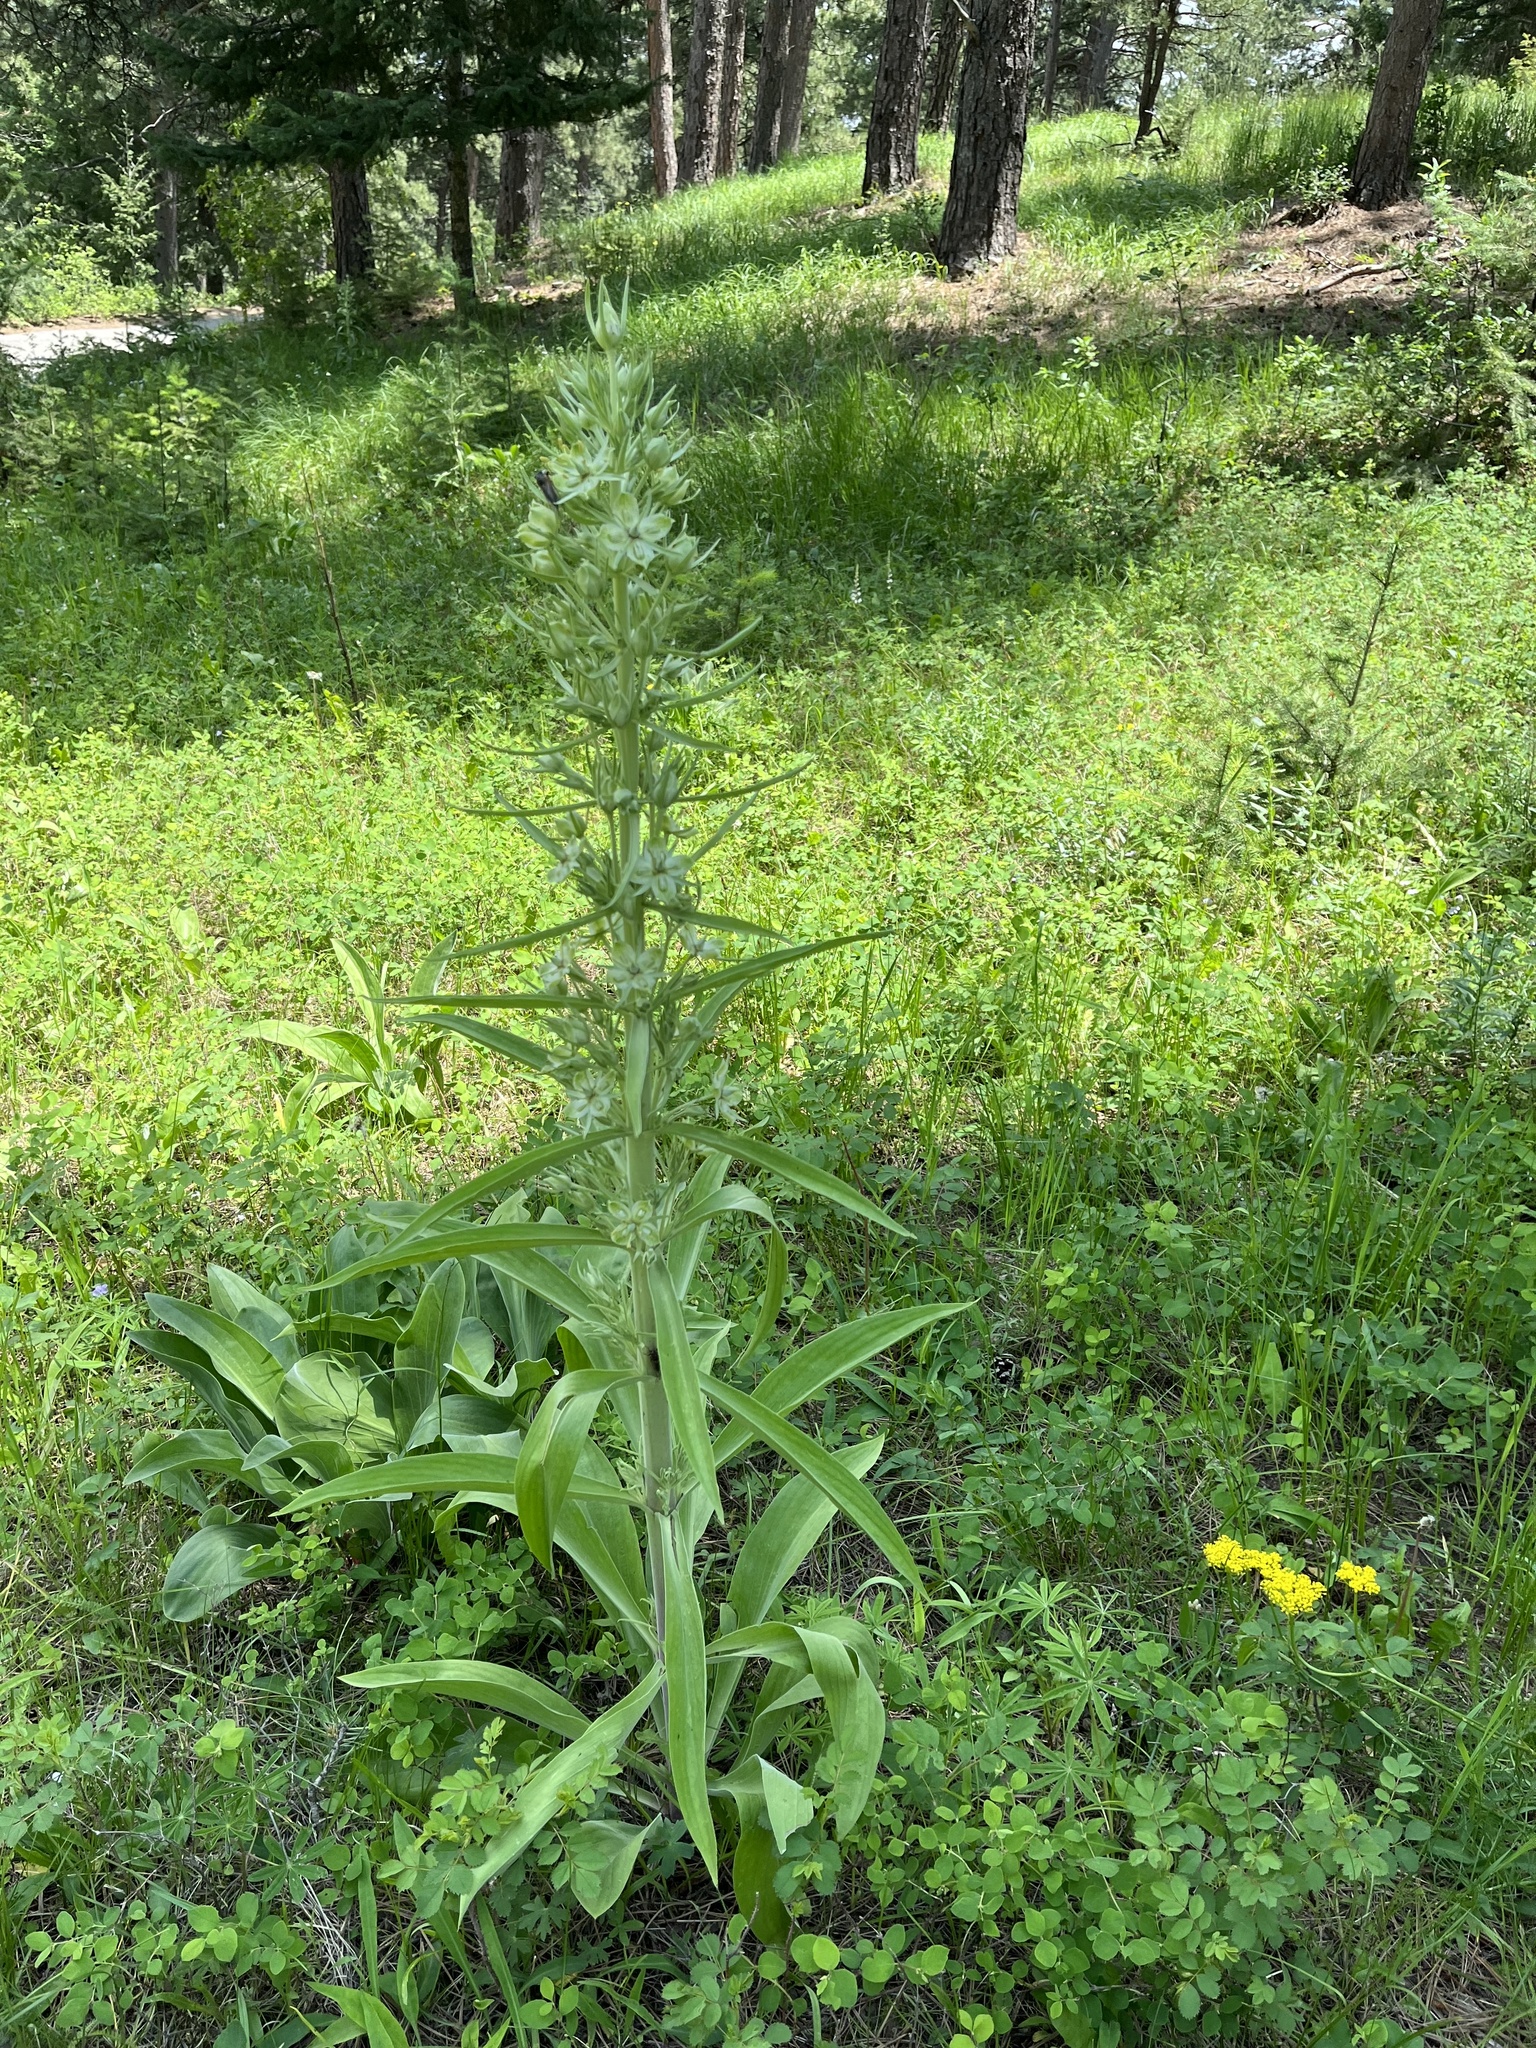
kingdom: Plantae
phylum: Tracheophyta
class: Magnoliopsida
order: Gentianales
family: Gentianaceae
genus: Frasera
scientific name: Frasera speciosa
